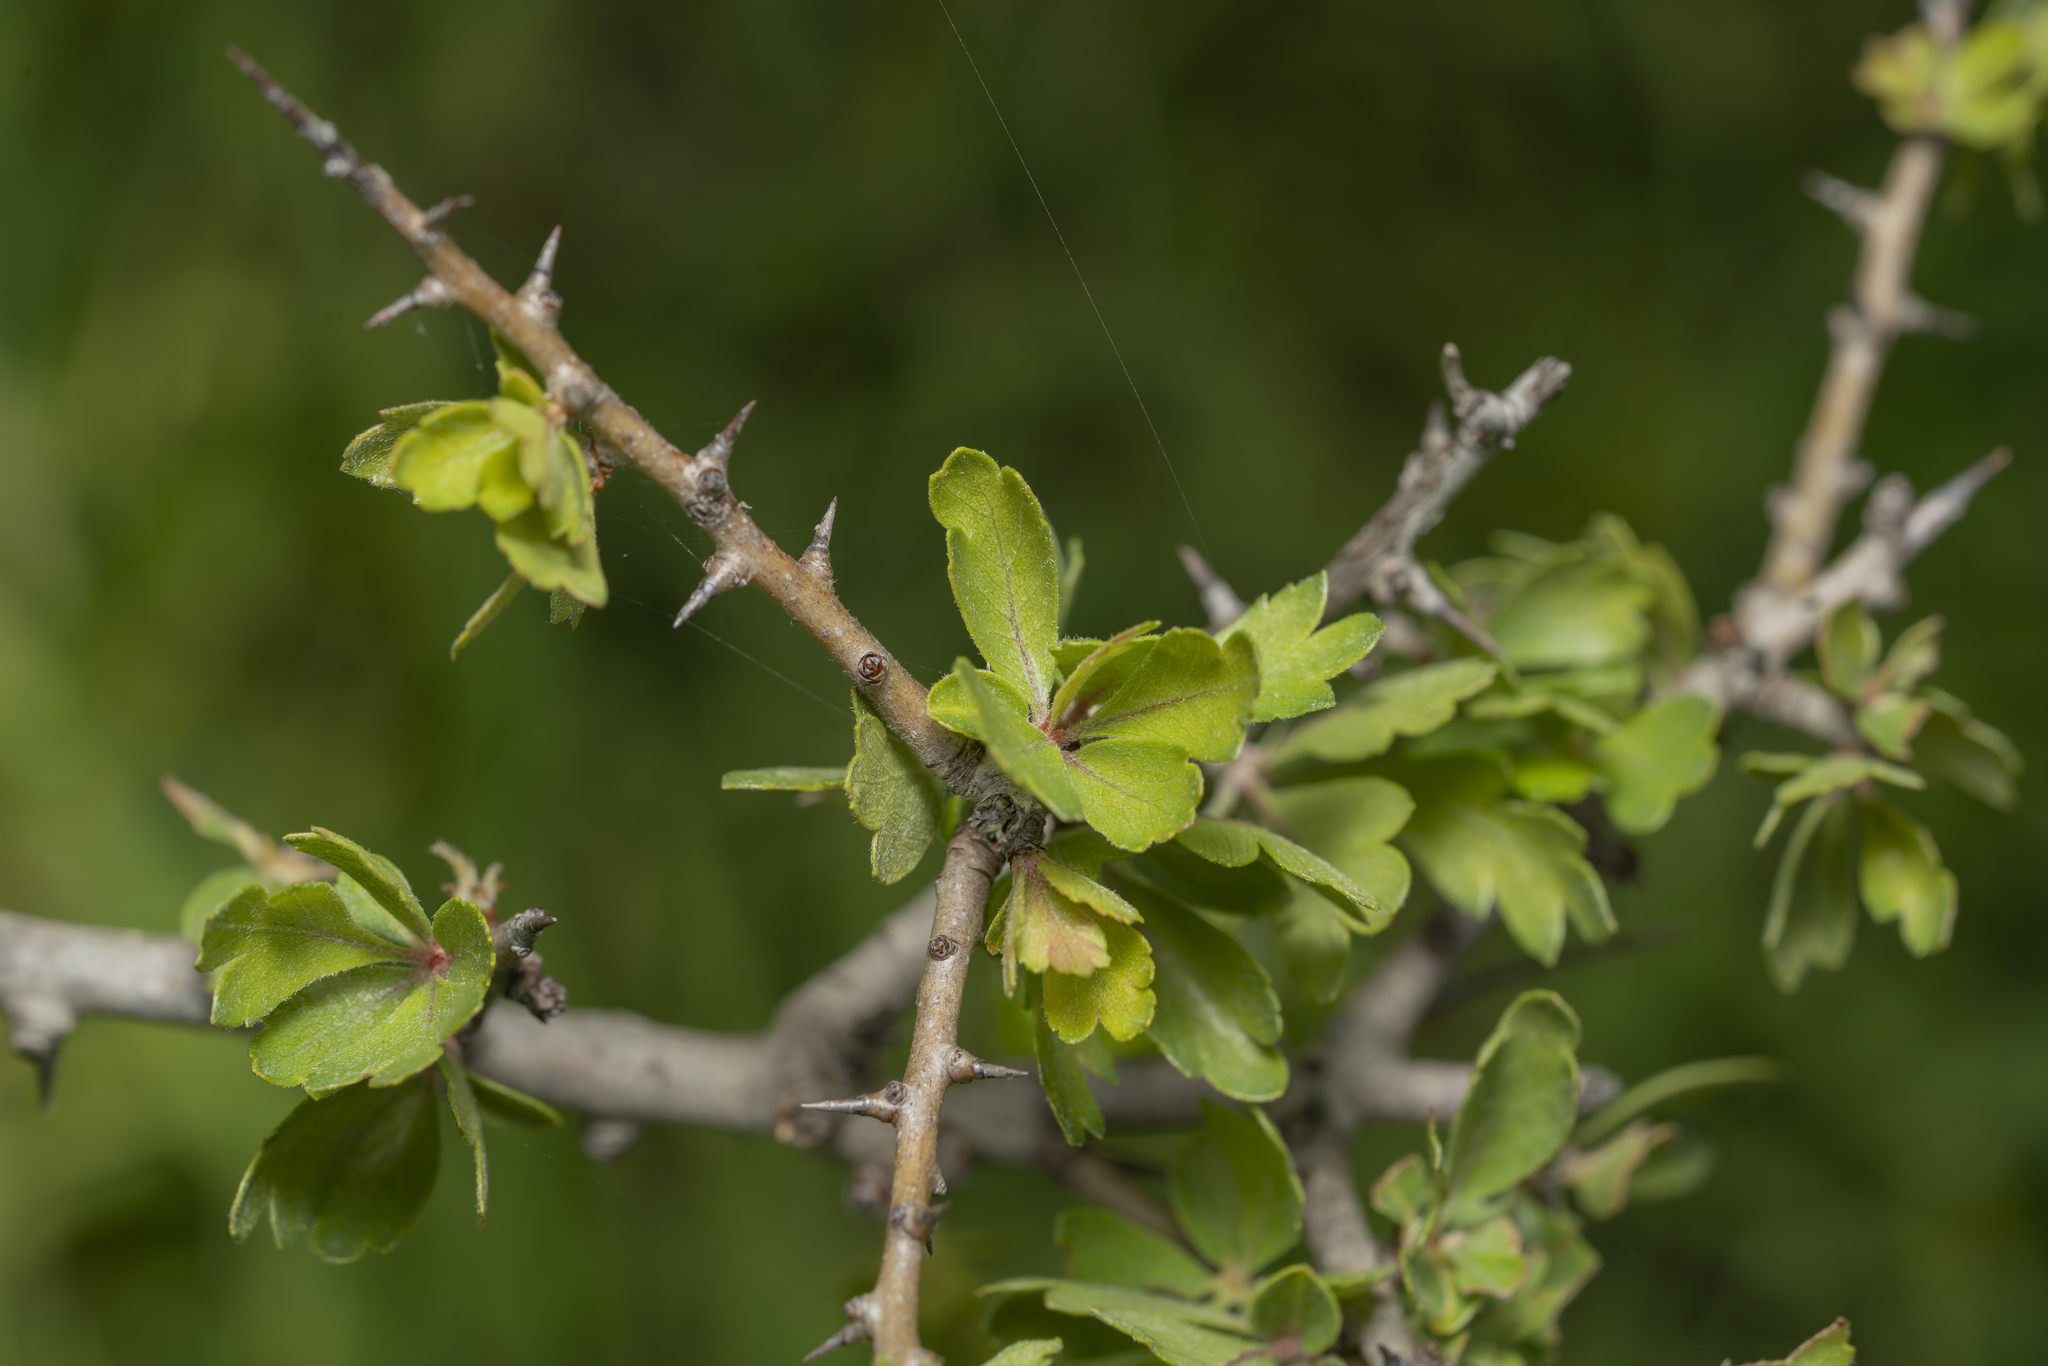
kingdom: Plantae
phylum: Tracheophyta
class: Magnoliopsida
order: Rosales
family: Rosaceae
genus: Crataegus
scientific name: Crataegus azarolus
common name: Azarole
